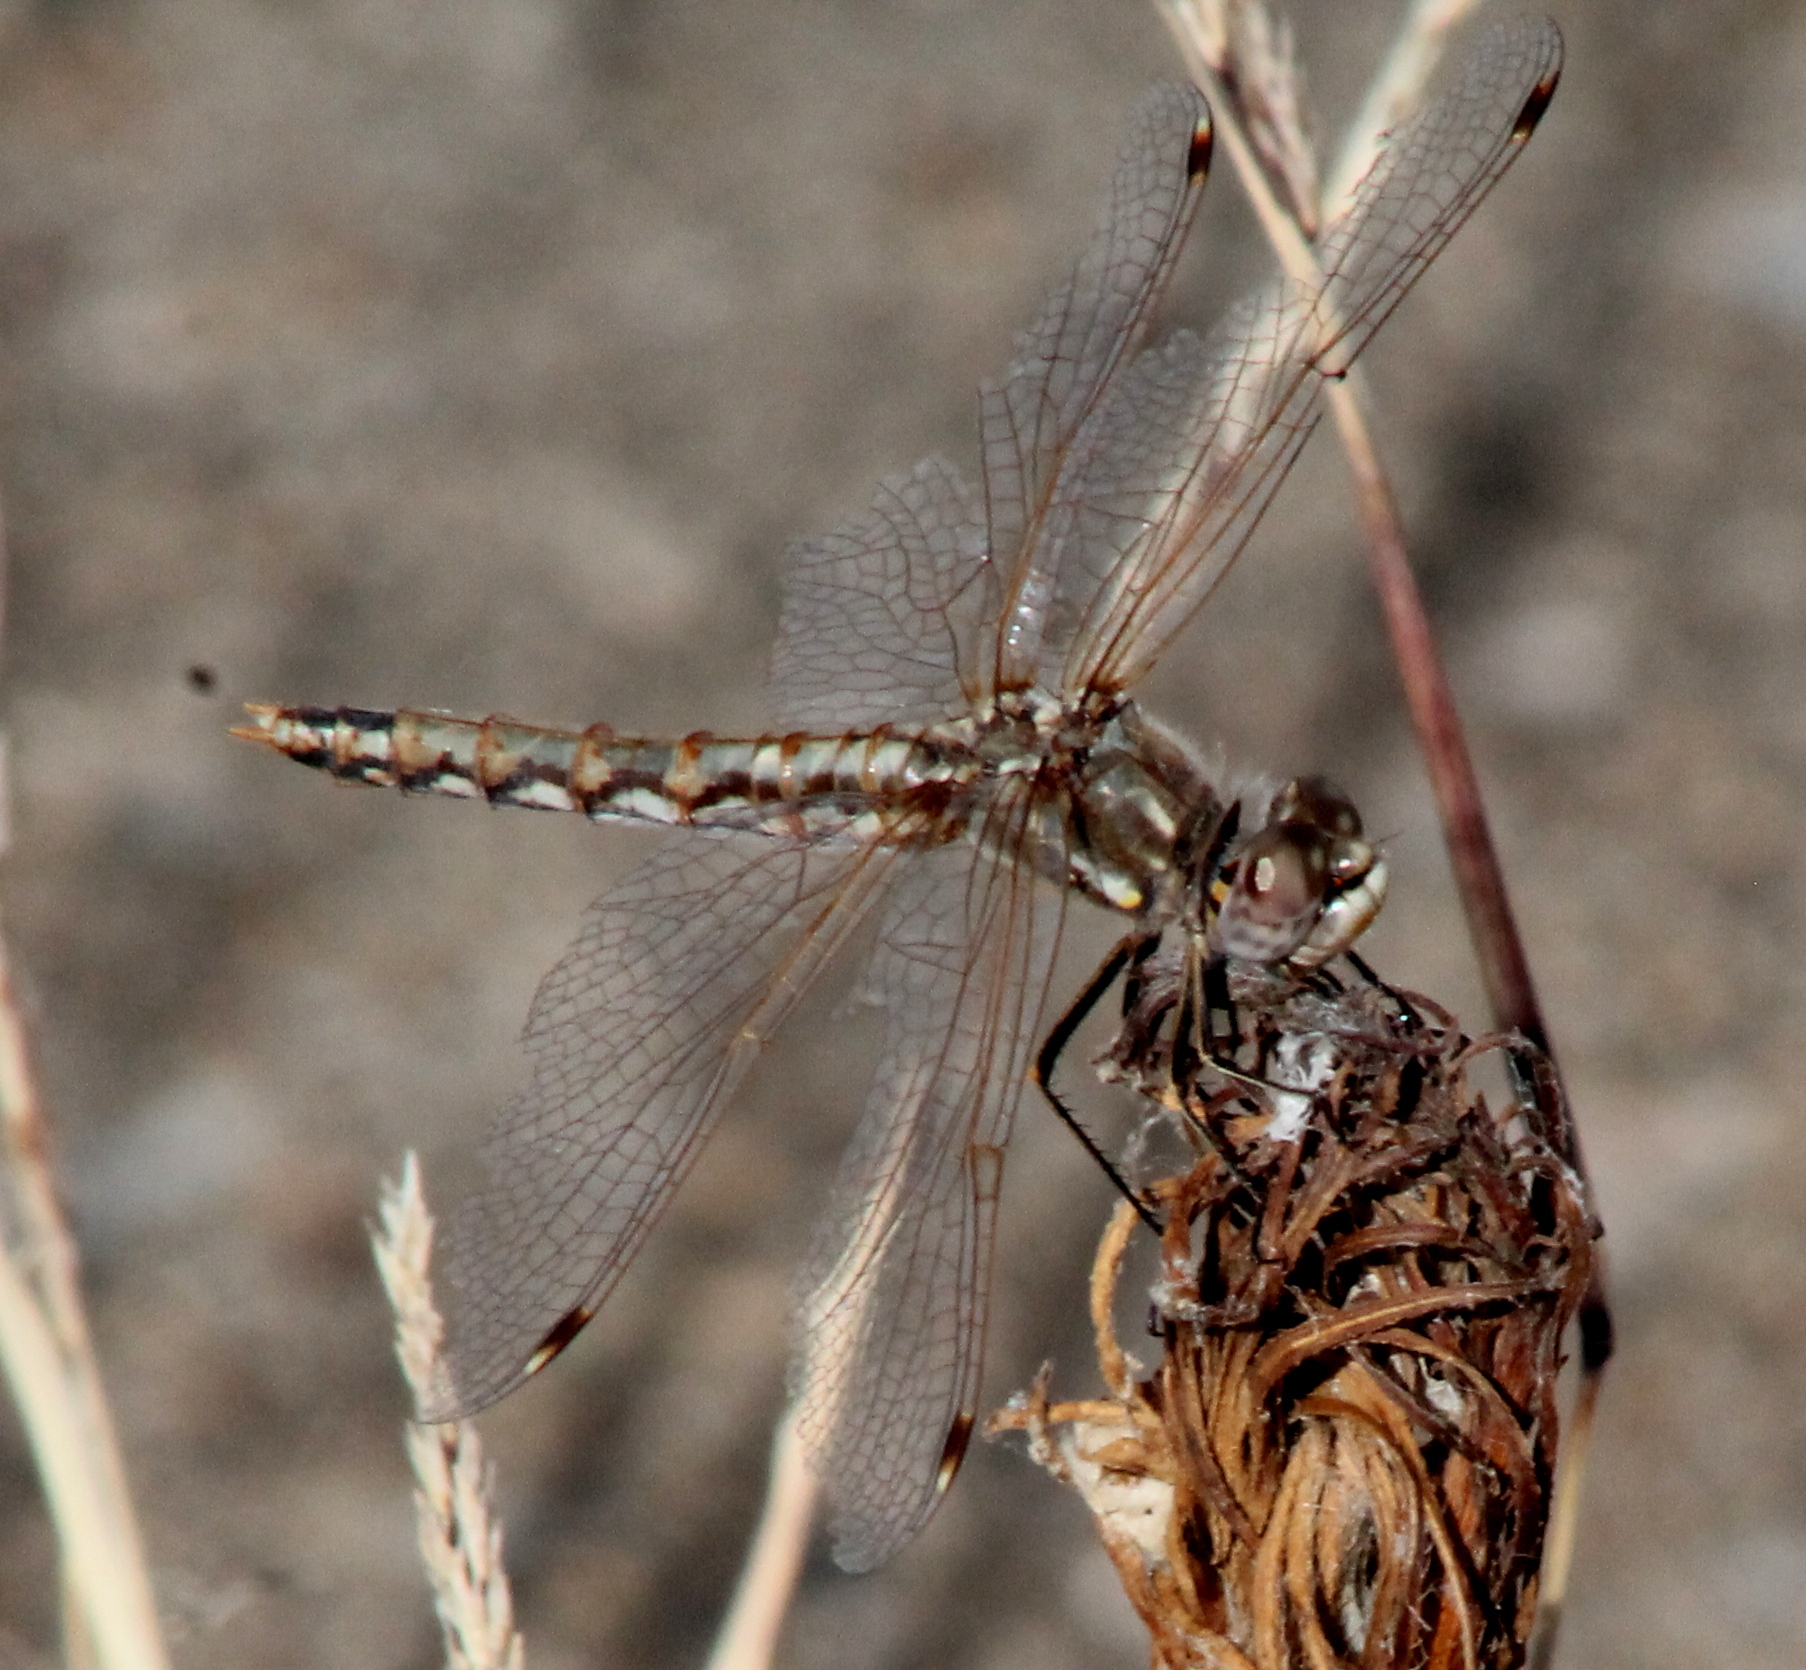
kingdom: Animalia
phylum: Arthropoda
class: Insecta
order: Odonata
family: Libellulidae
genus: Sympetrum
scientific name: Sympetrum corruptum
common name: Variegated meadowhawk
